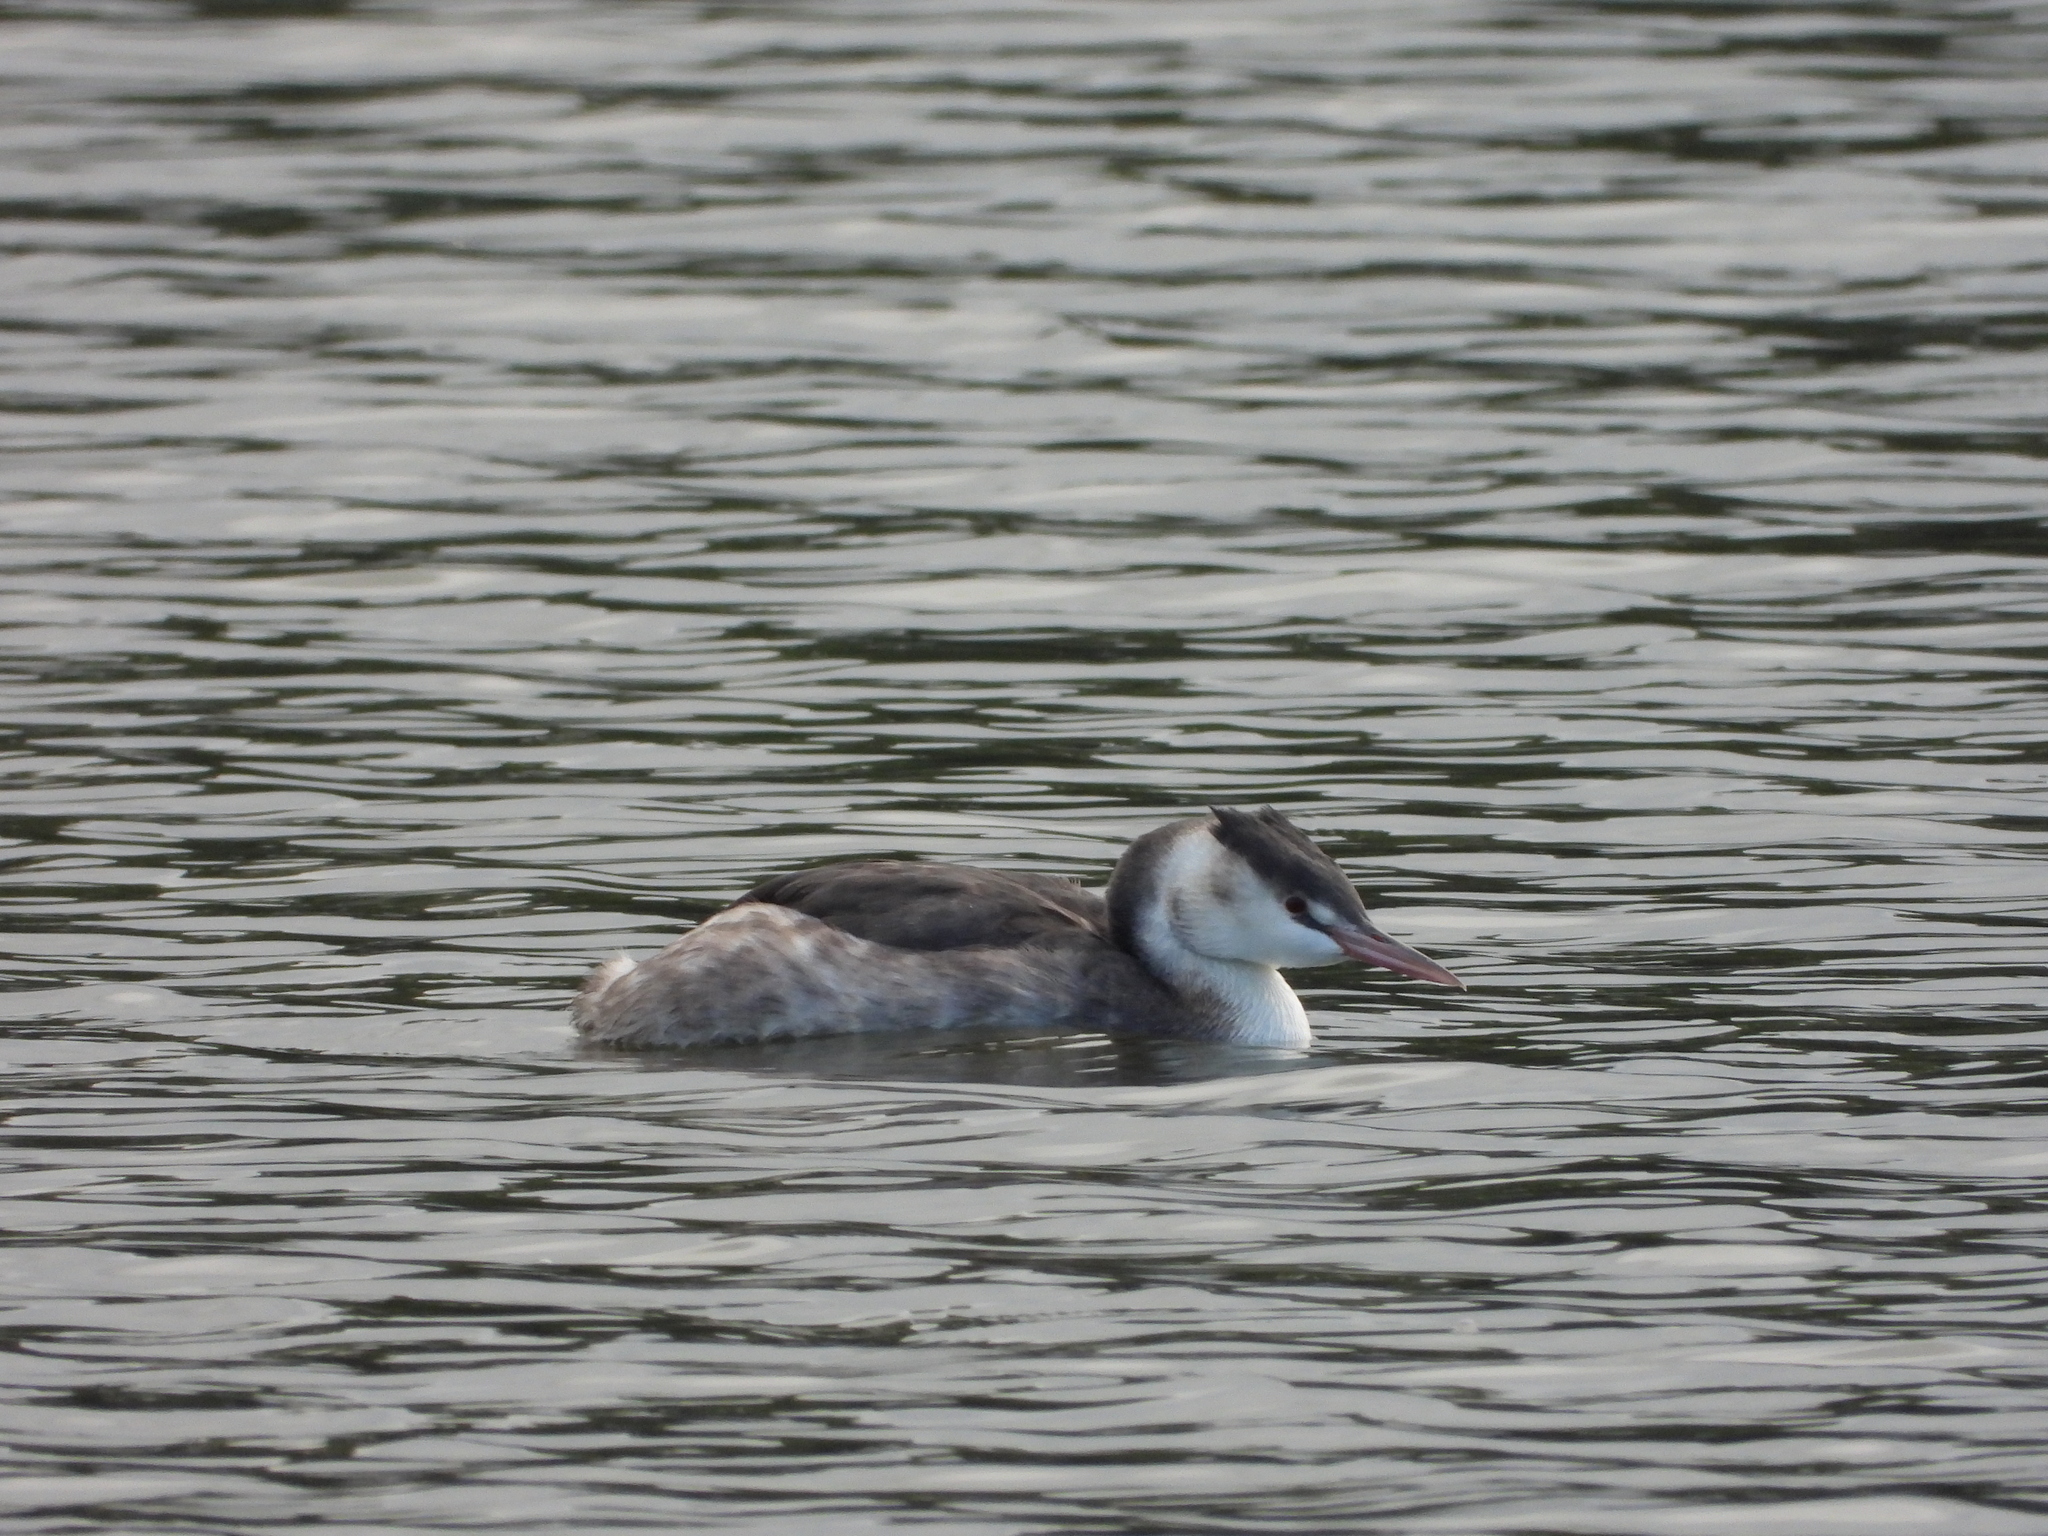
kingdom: Animalia
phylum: Chordata
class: Aves
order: Podicipediformes
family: Podicipedidae
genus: Podiceps
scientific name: Podiceps cristatus
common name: Great crested grebe
